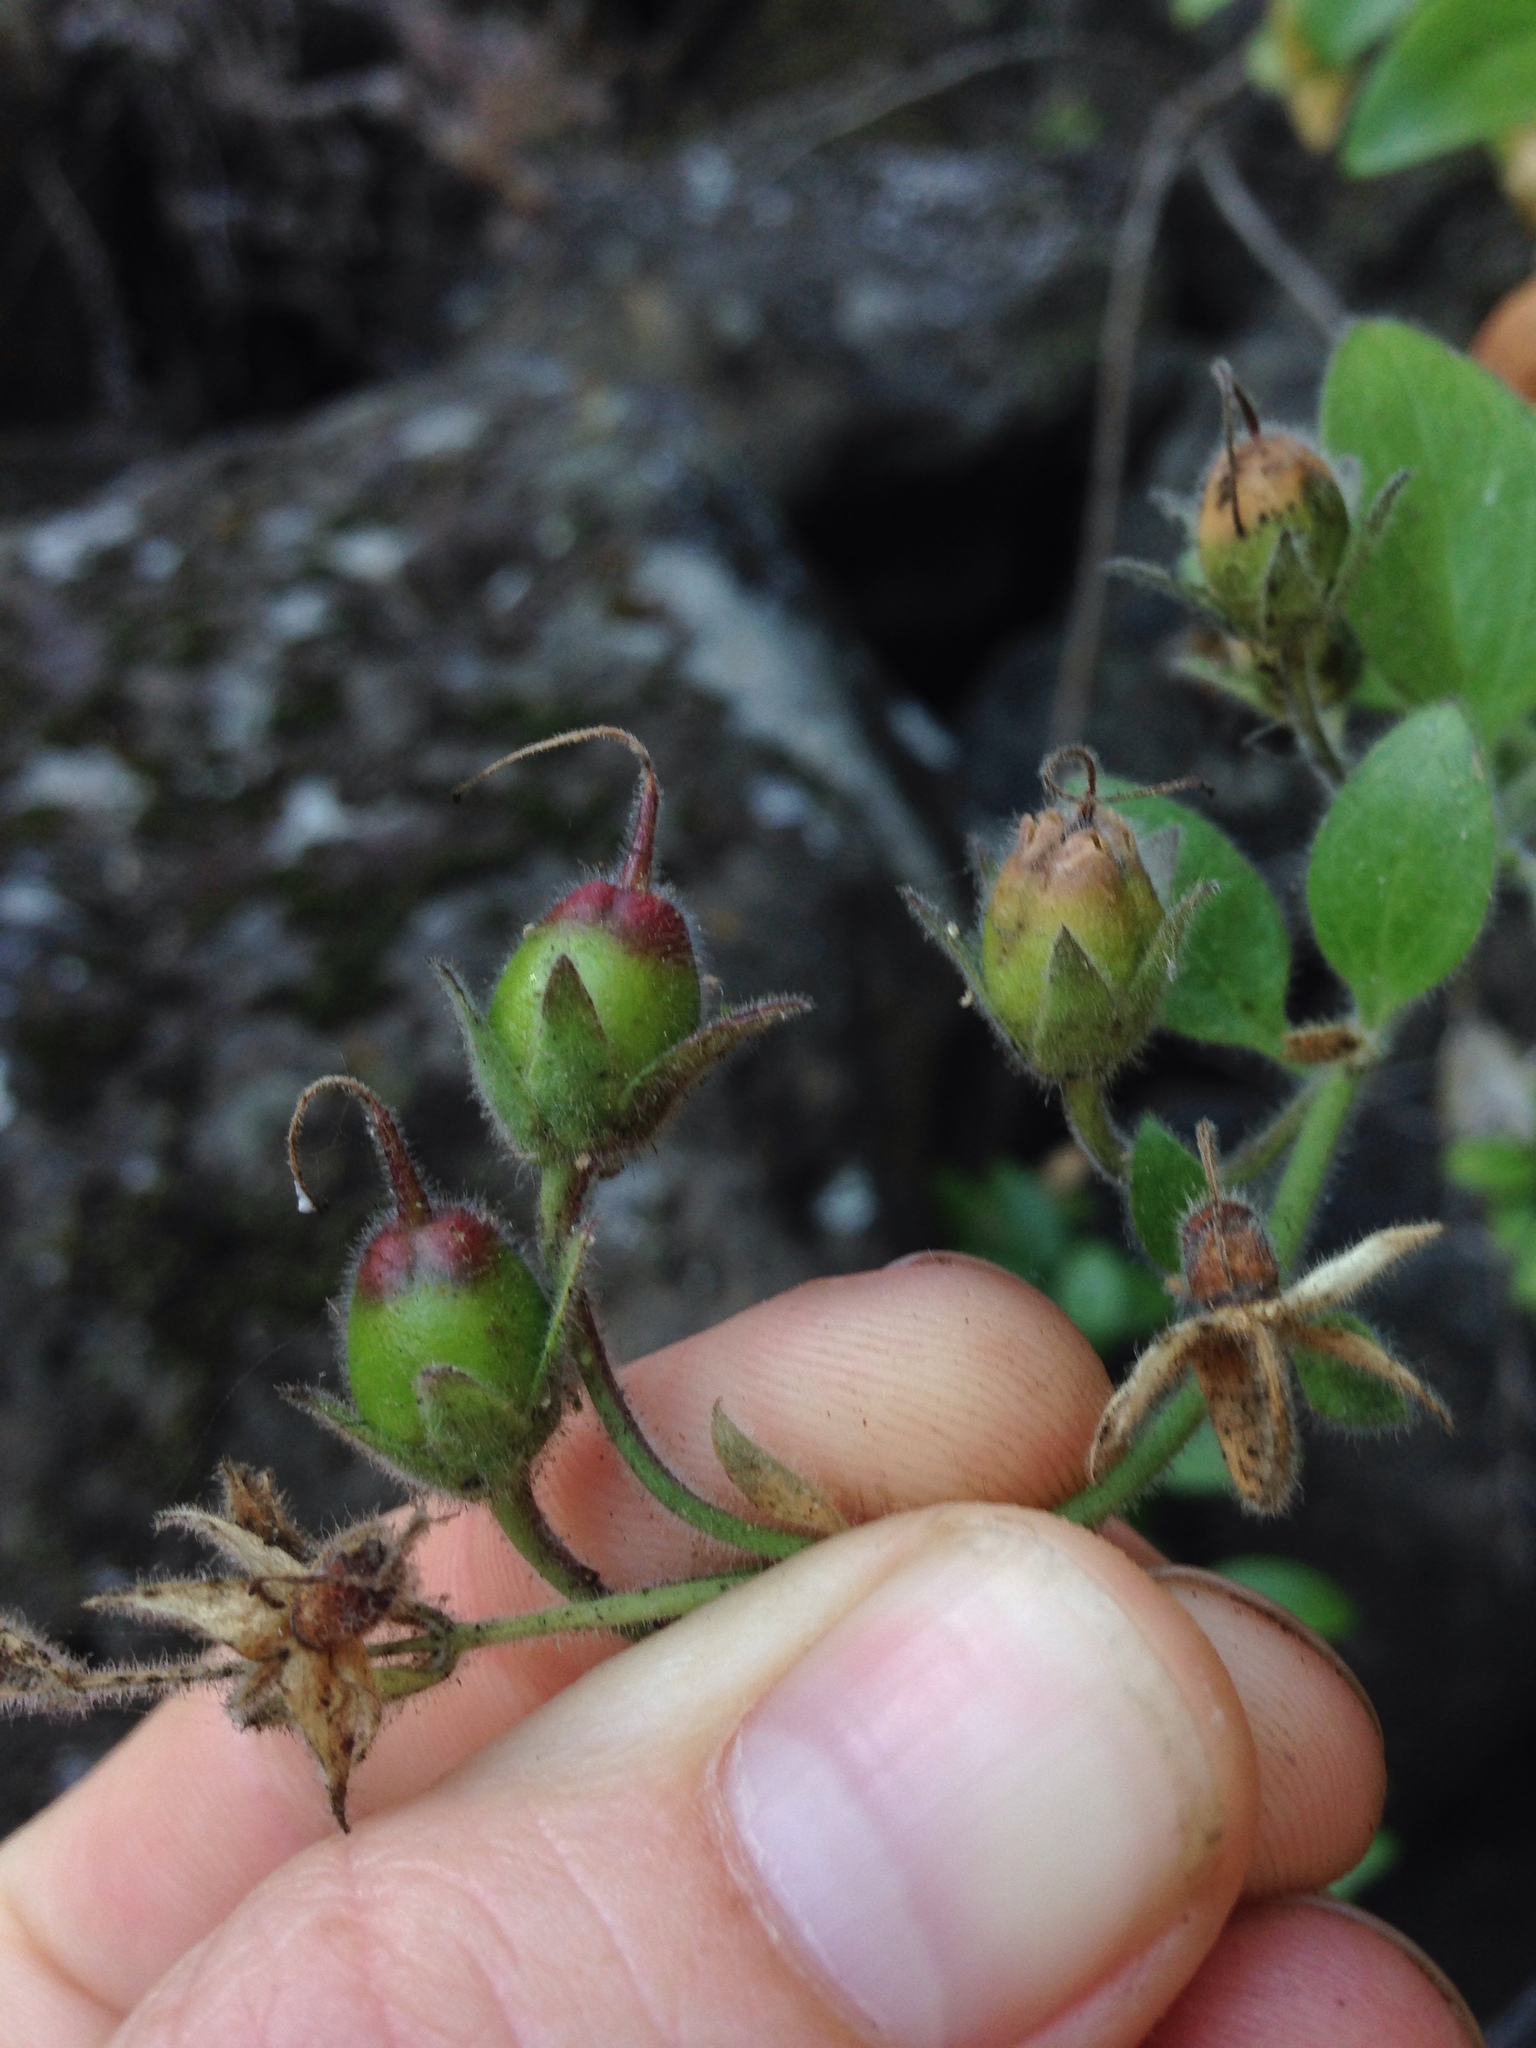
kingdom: Plantae
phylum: Tracheophyta
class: Magnoliopsida
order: Lamiales
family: Plantaginaceae
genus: Gambelia
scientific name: Gambelia speciosa
